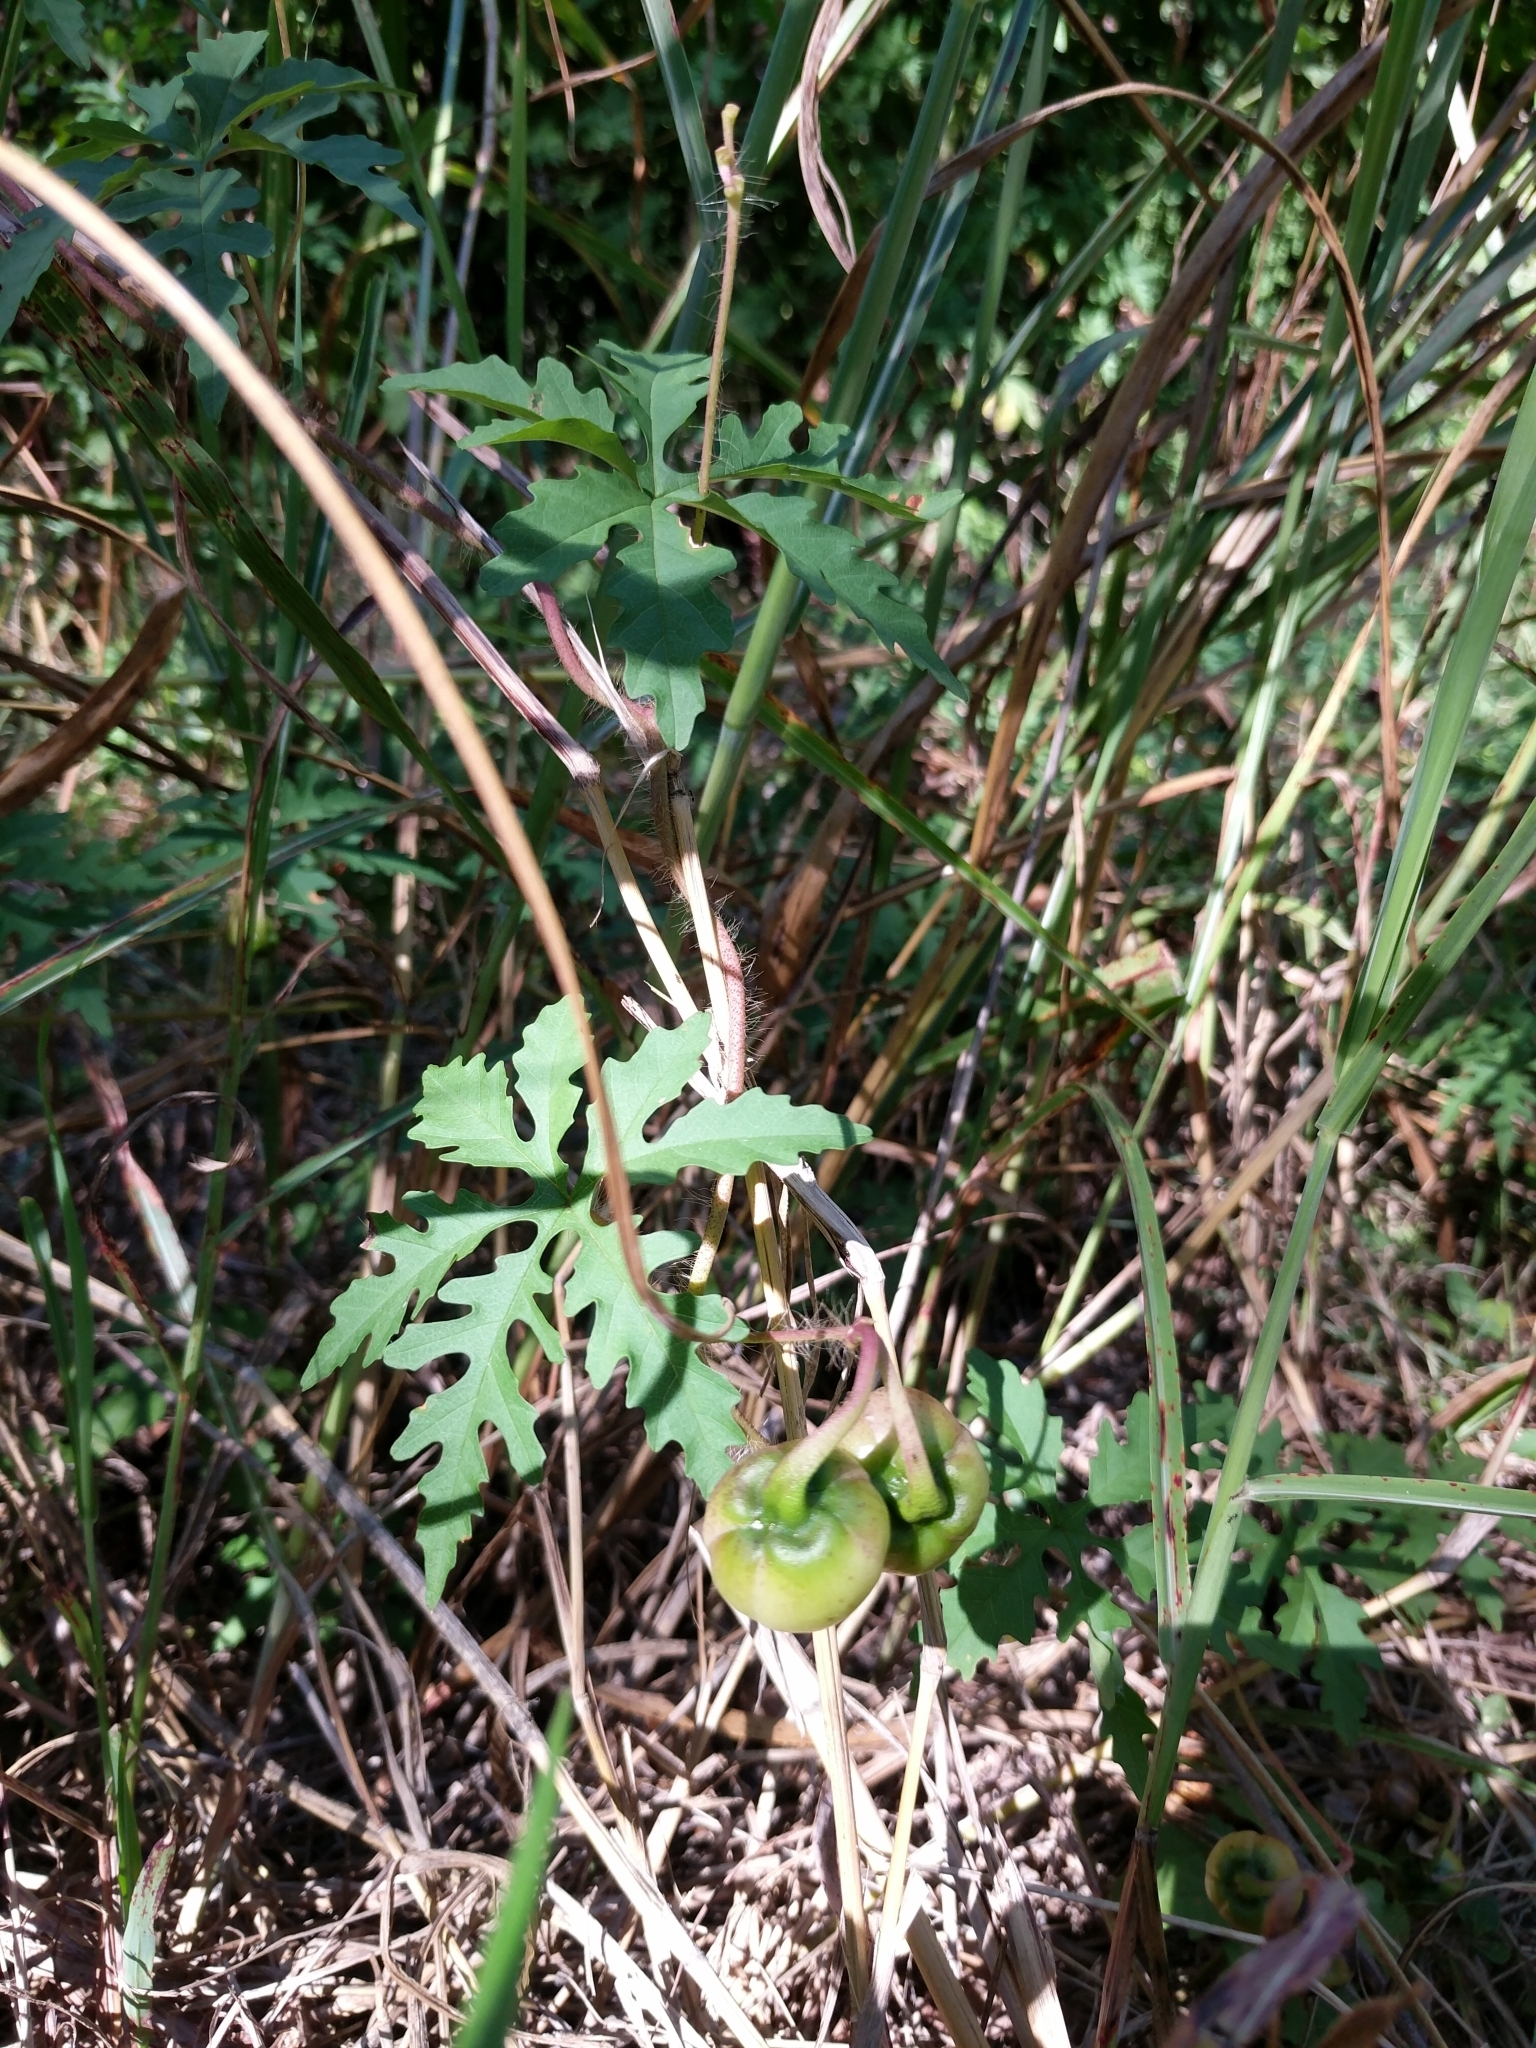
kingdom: Plantae
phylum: Tracheophyta
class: Magnoliopsida
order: Solanales
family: Convolvulaceae
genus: Distimake
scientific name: Distimake dissectus
